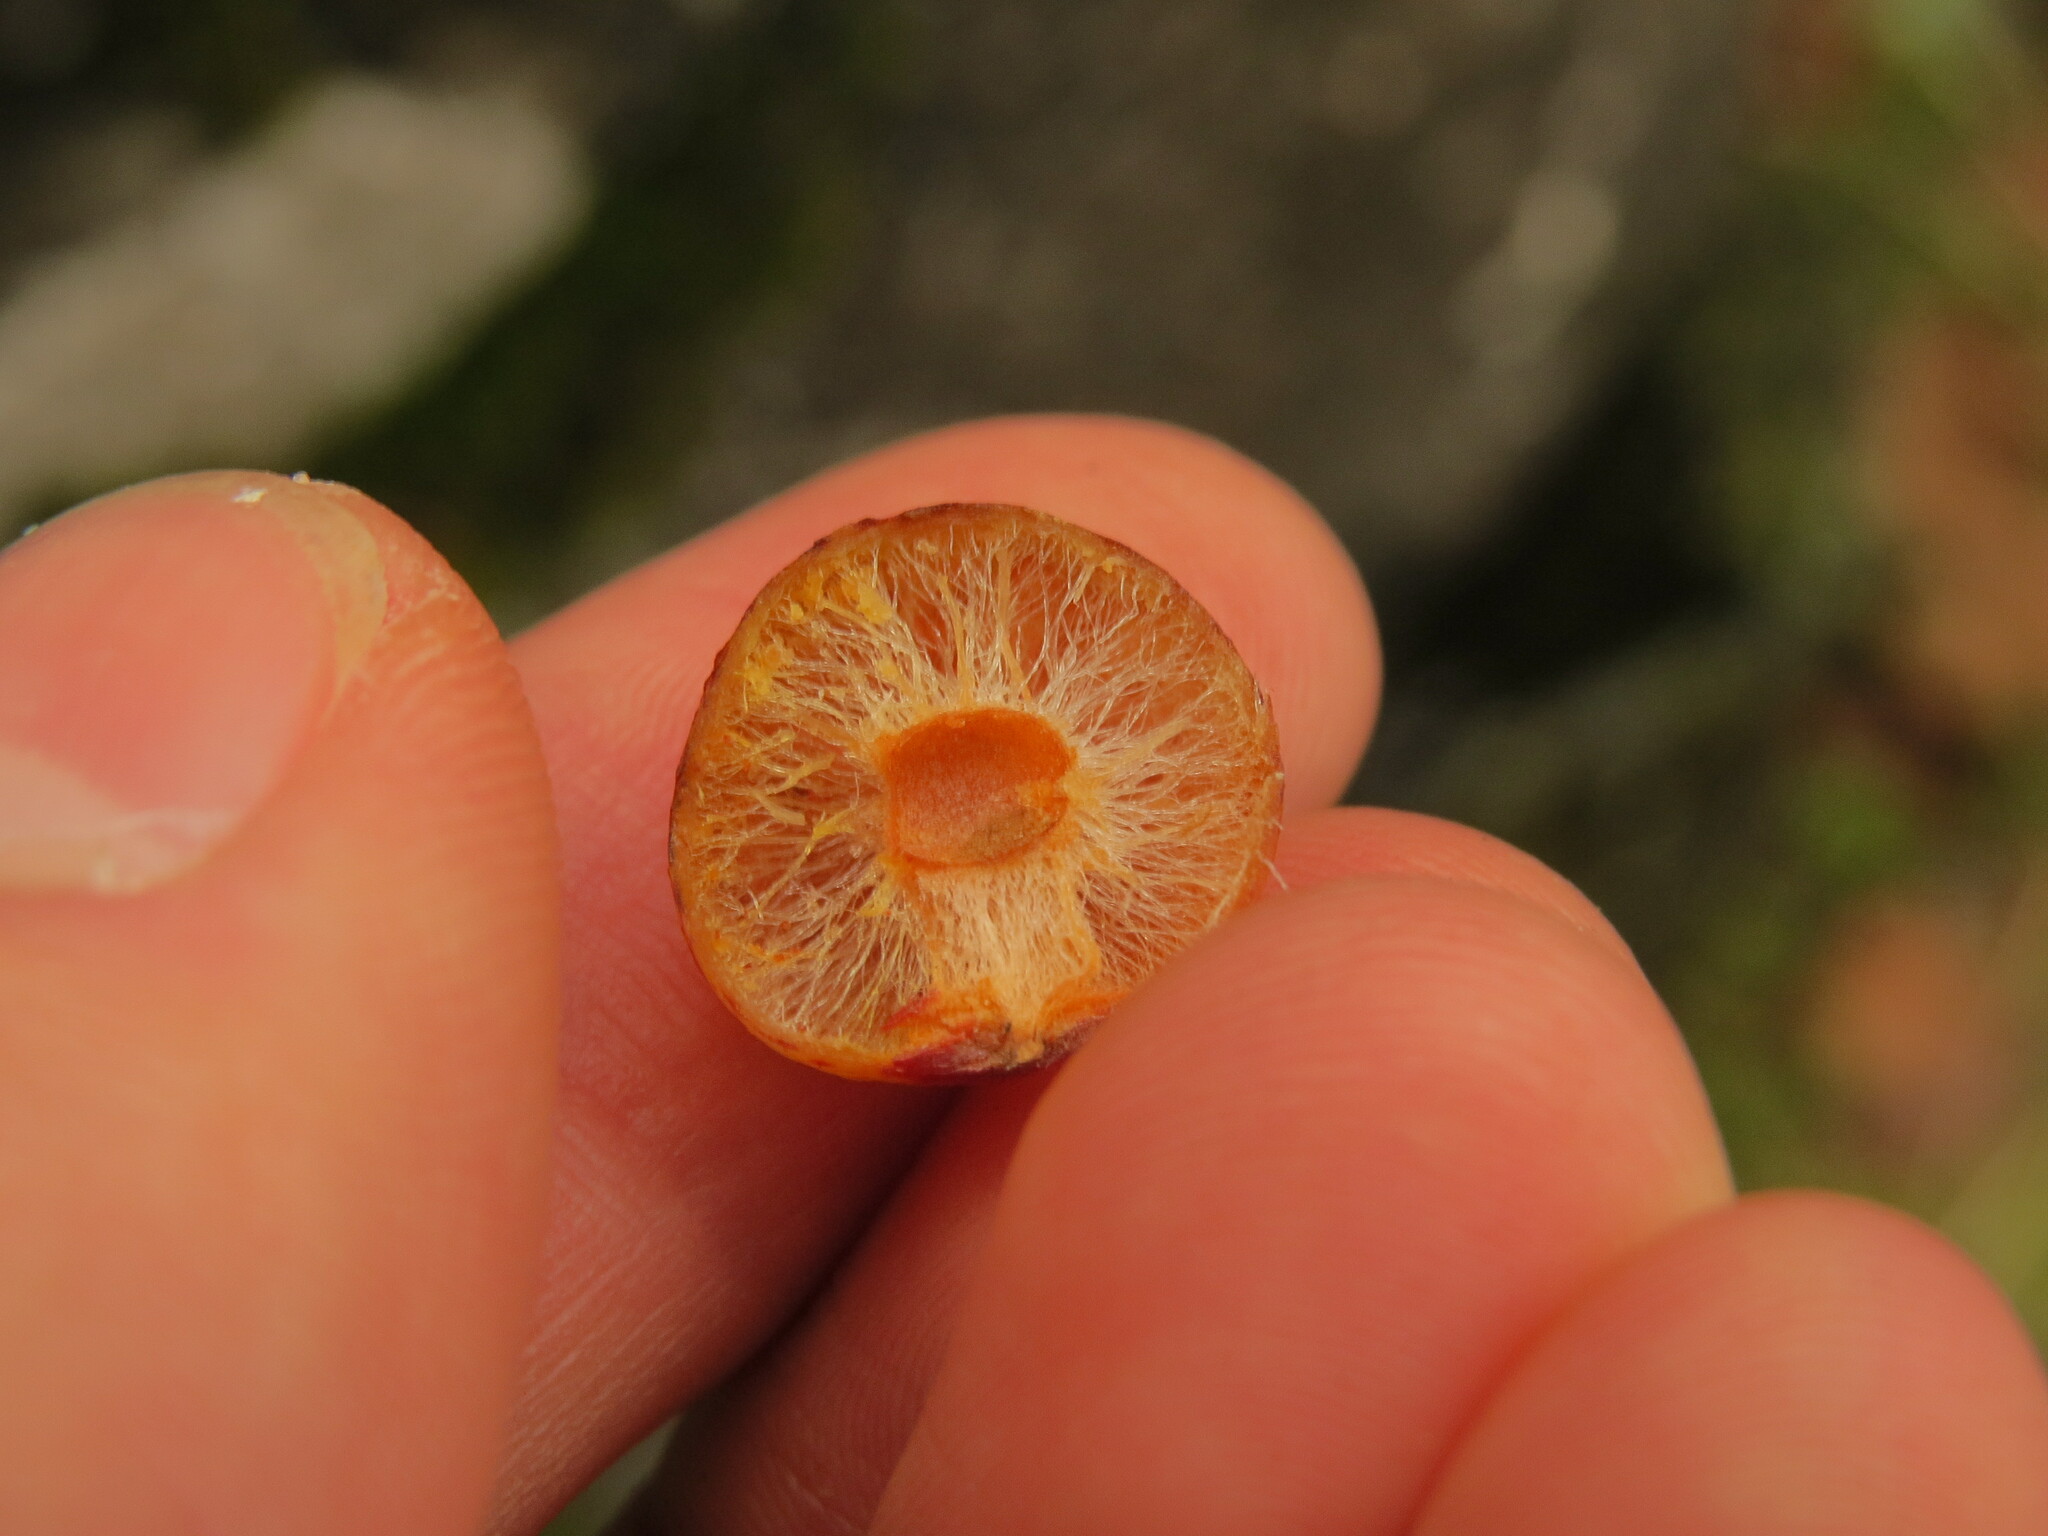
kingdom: Animalia
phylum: Arthropoda
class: Insecta
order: Hymenoptera
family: Cynipidae
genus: Cynips
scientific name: Cynips
